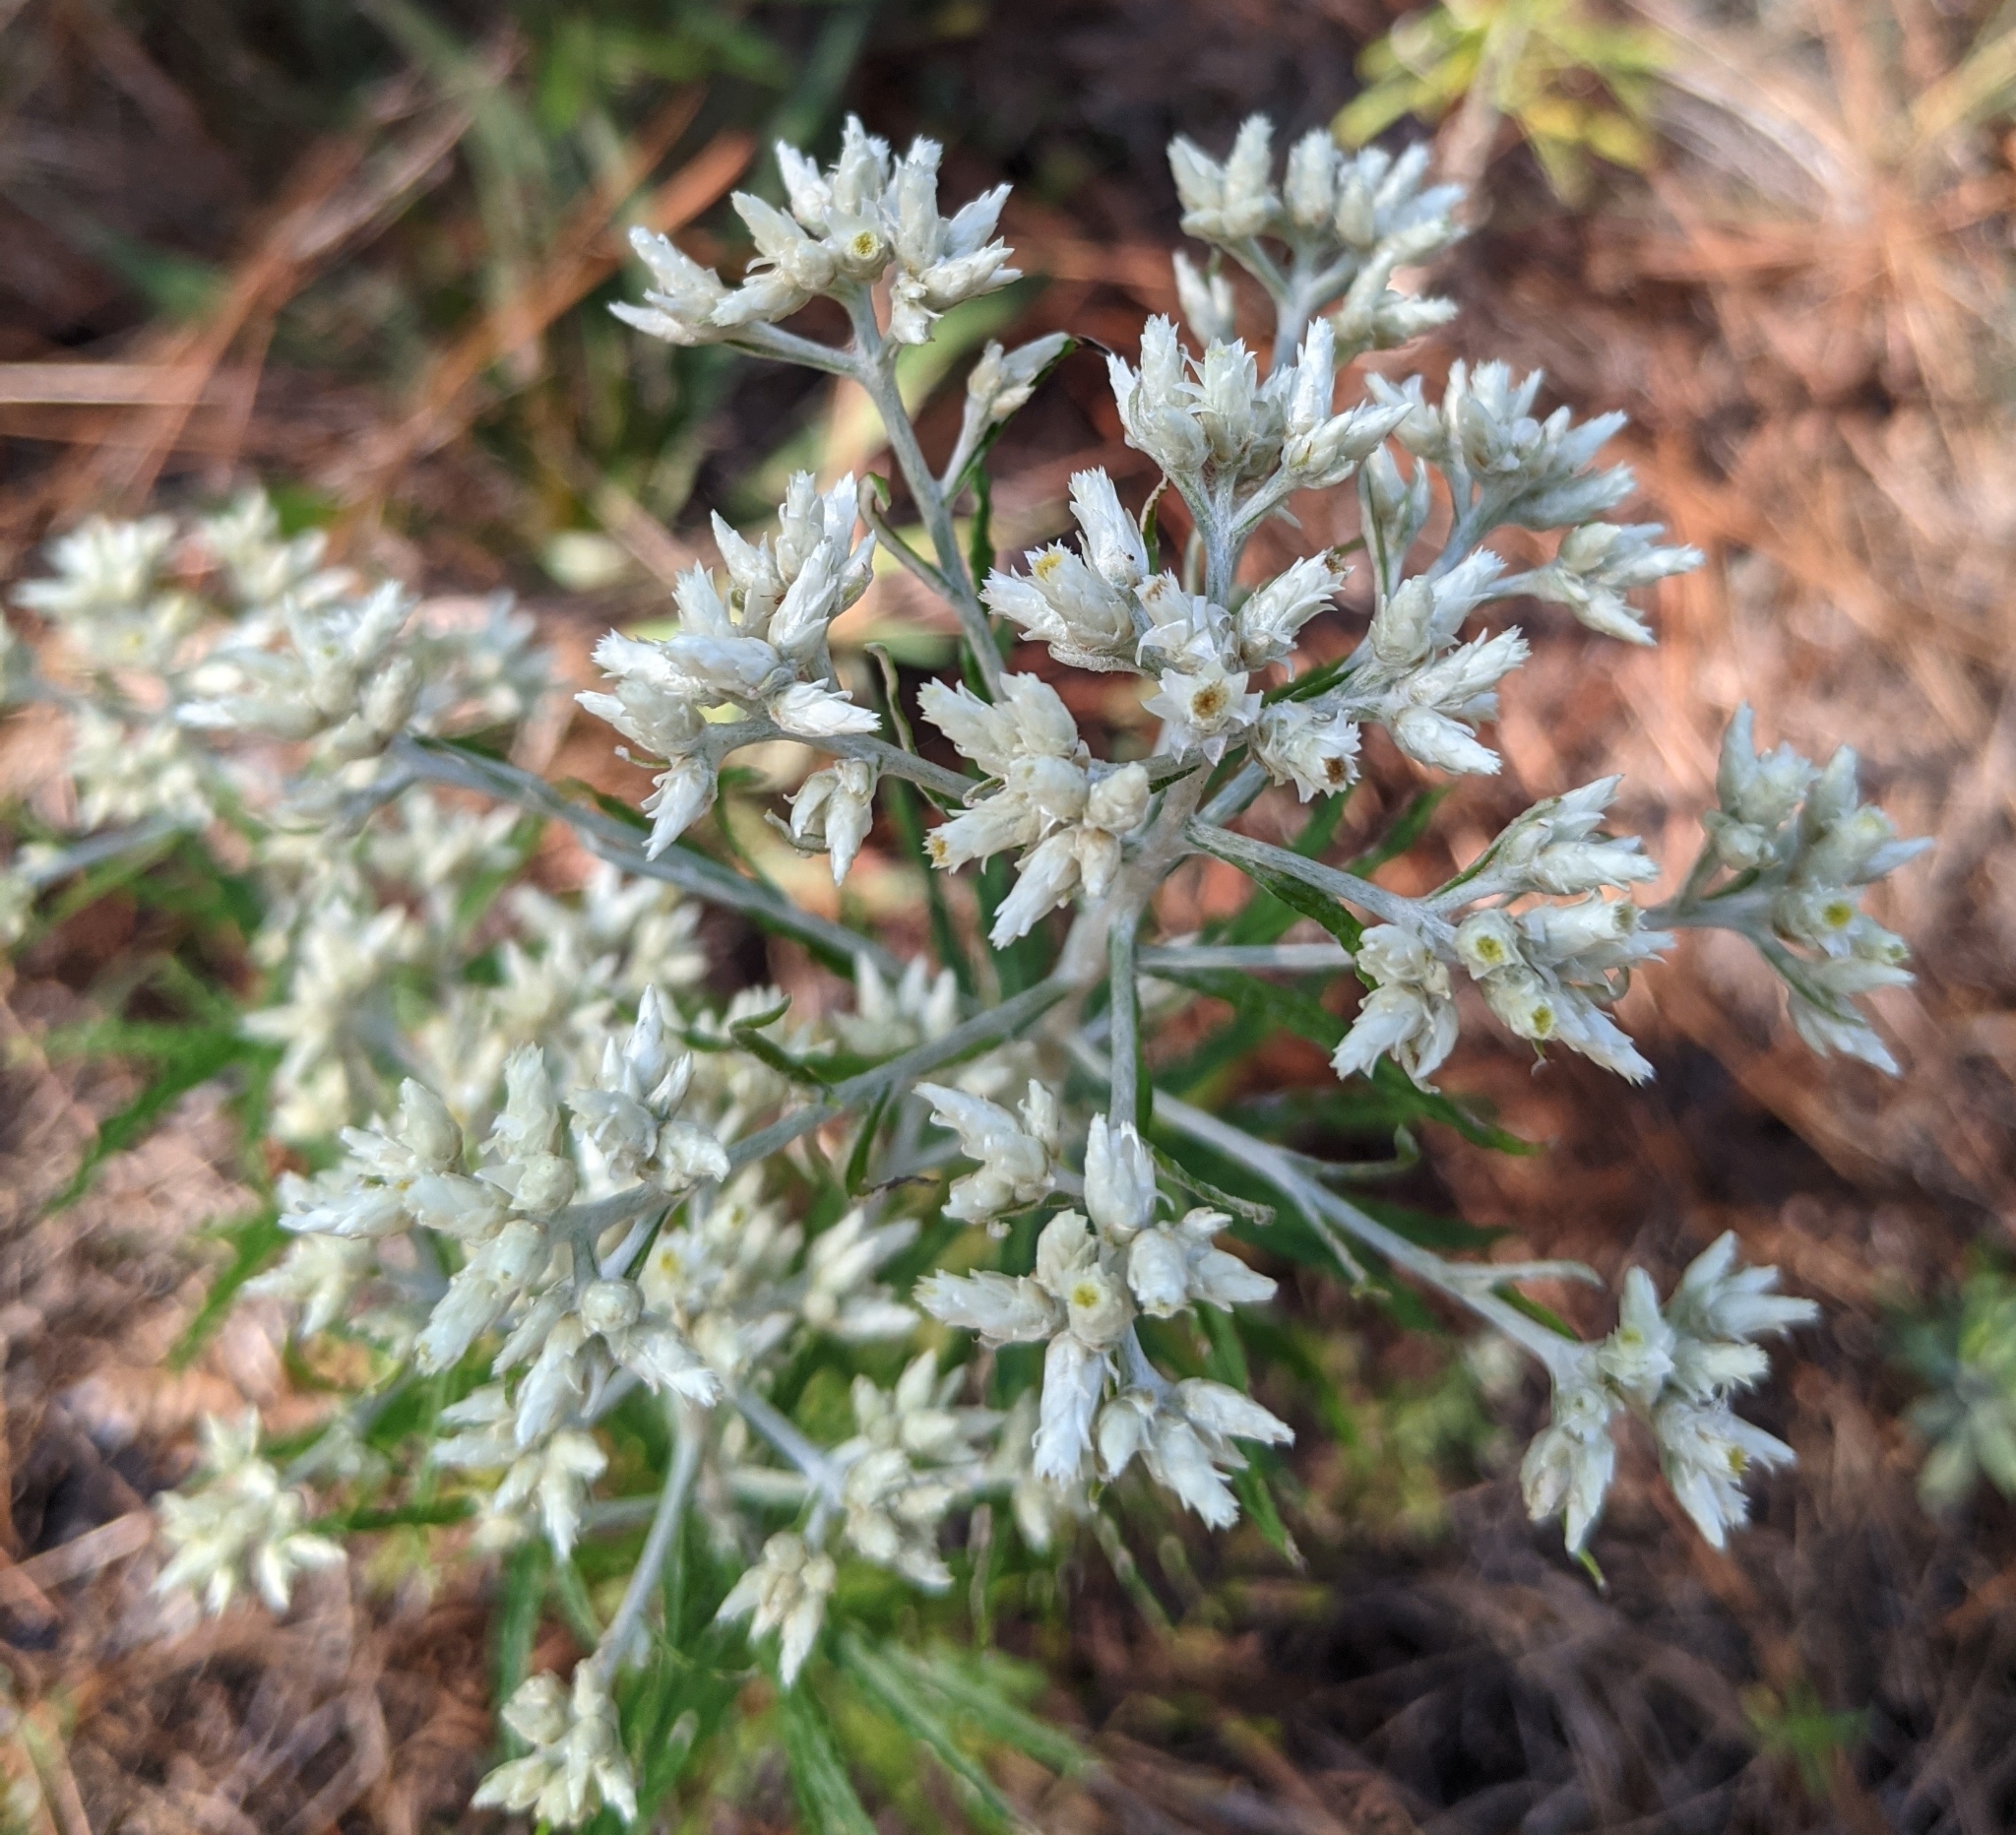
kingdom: Plantae
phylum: Tracheophyta
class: Magnoliopsida
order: Asterales
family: Asteraceae
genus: Pseudognaphalium
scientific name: Pseudognaphalium obtusifolium
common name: Eastern rabbit-tobacco
